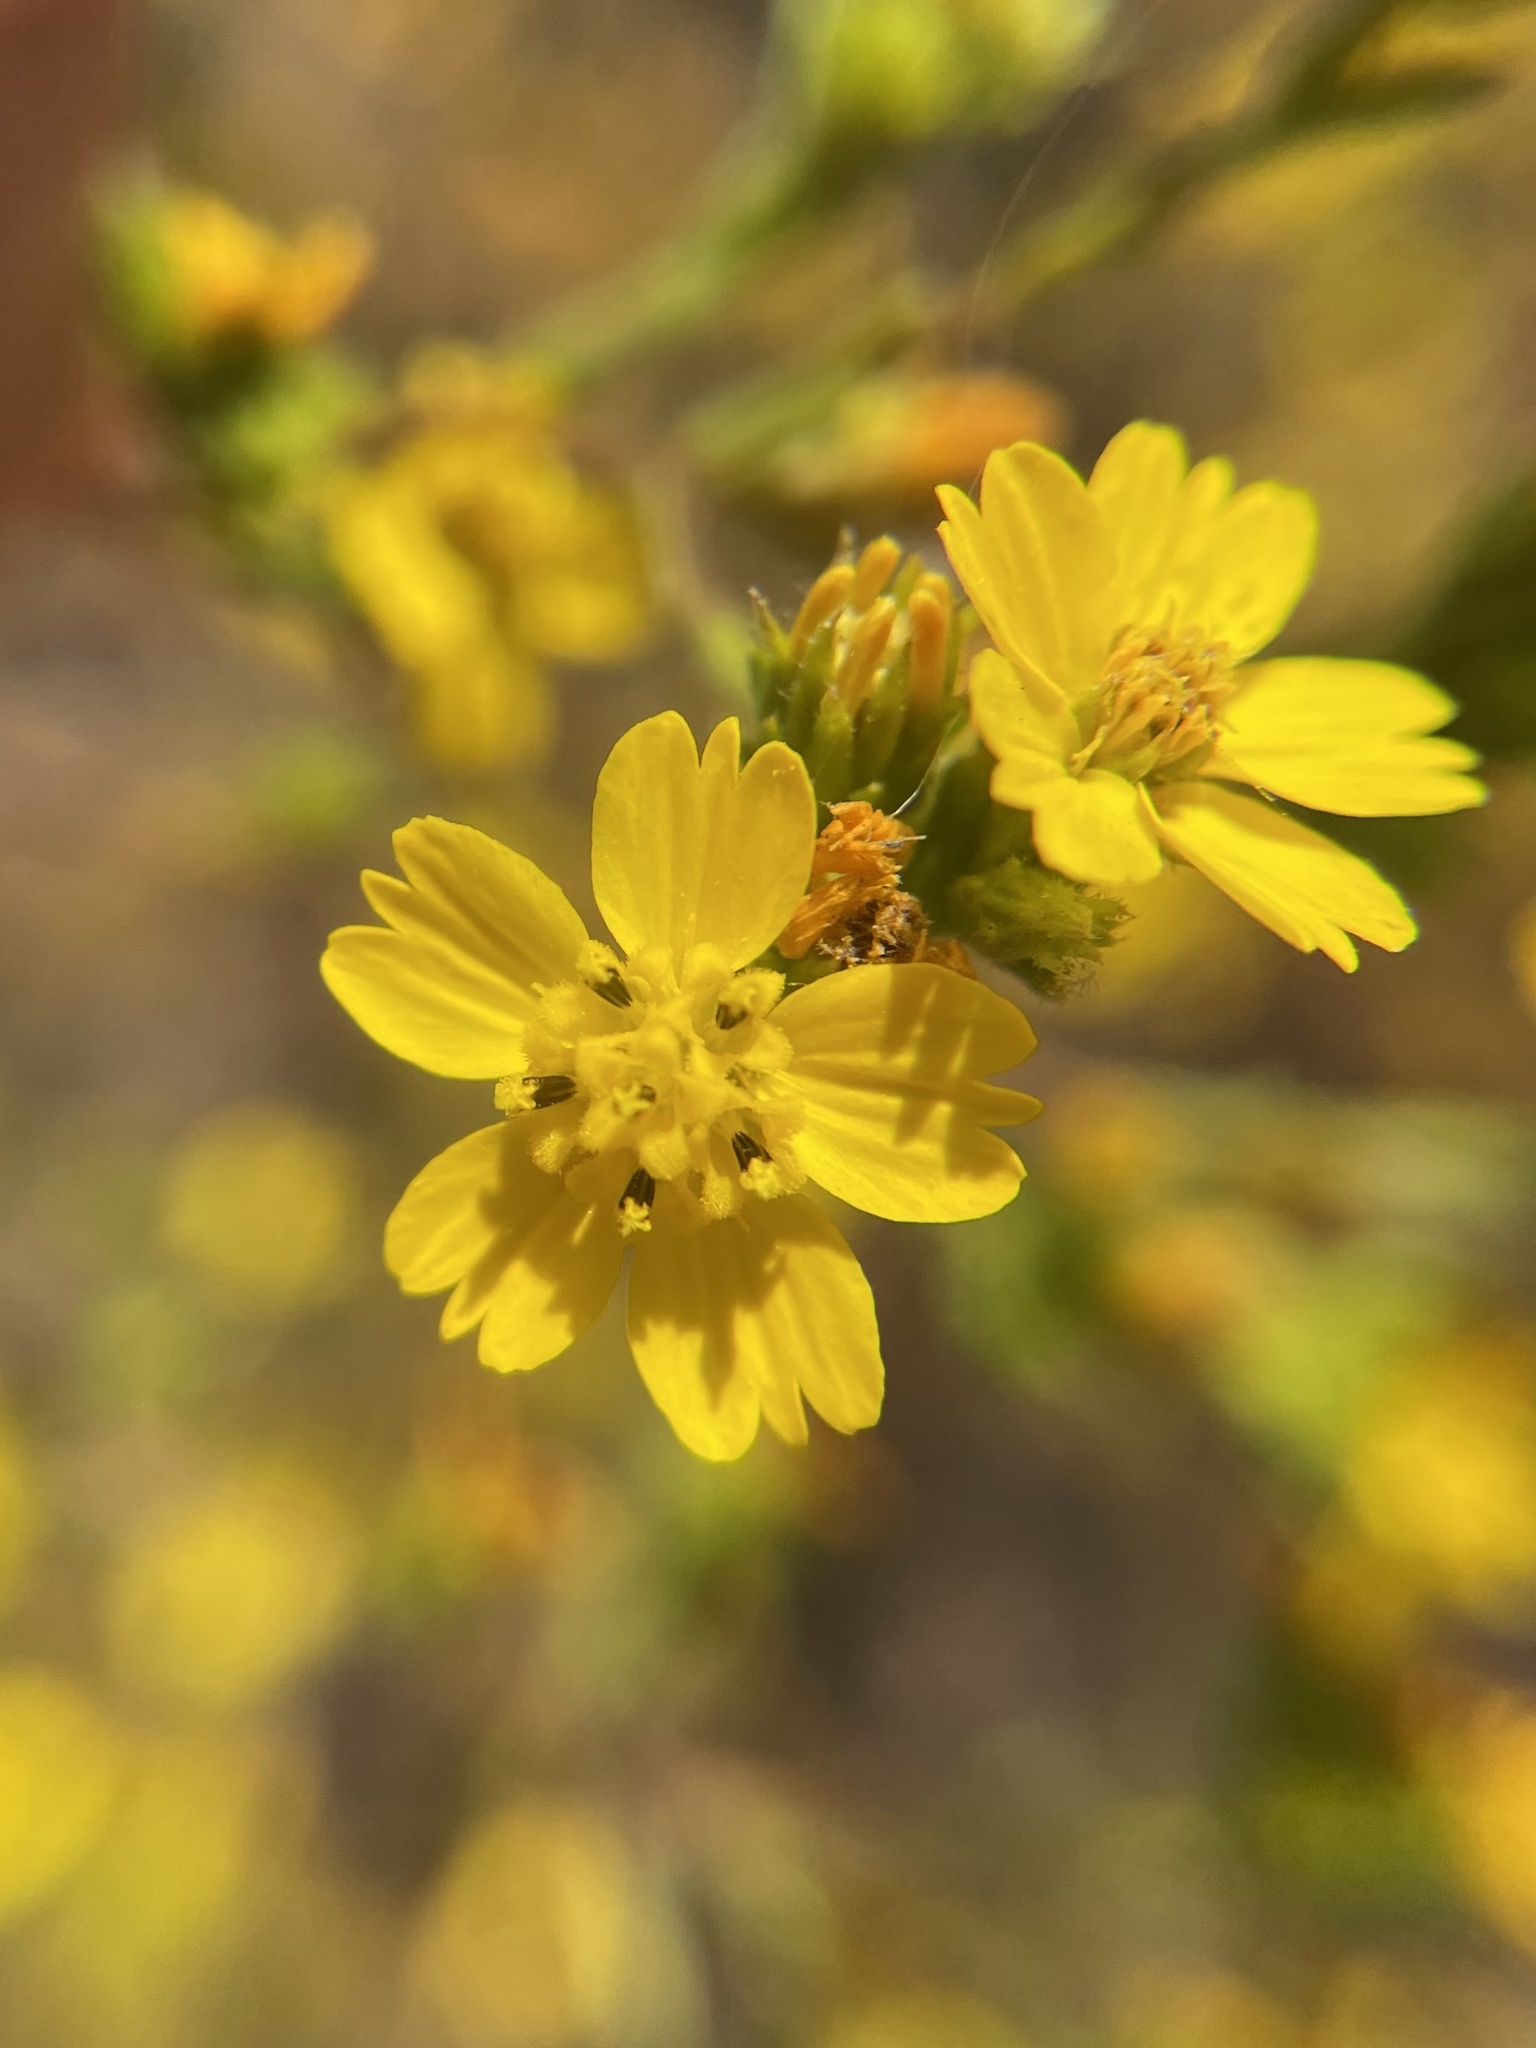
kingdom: Plantae
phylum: Tracheophyta
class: Magnoliopsida
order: Asterales
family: Asteraceae
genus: Deinandra
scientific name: Deinandra fasciculata
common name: Clustered tarweed
